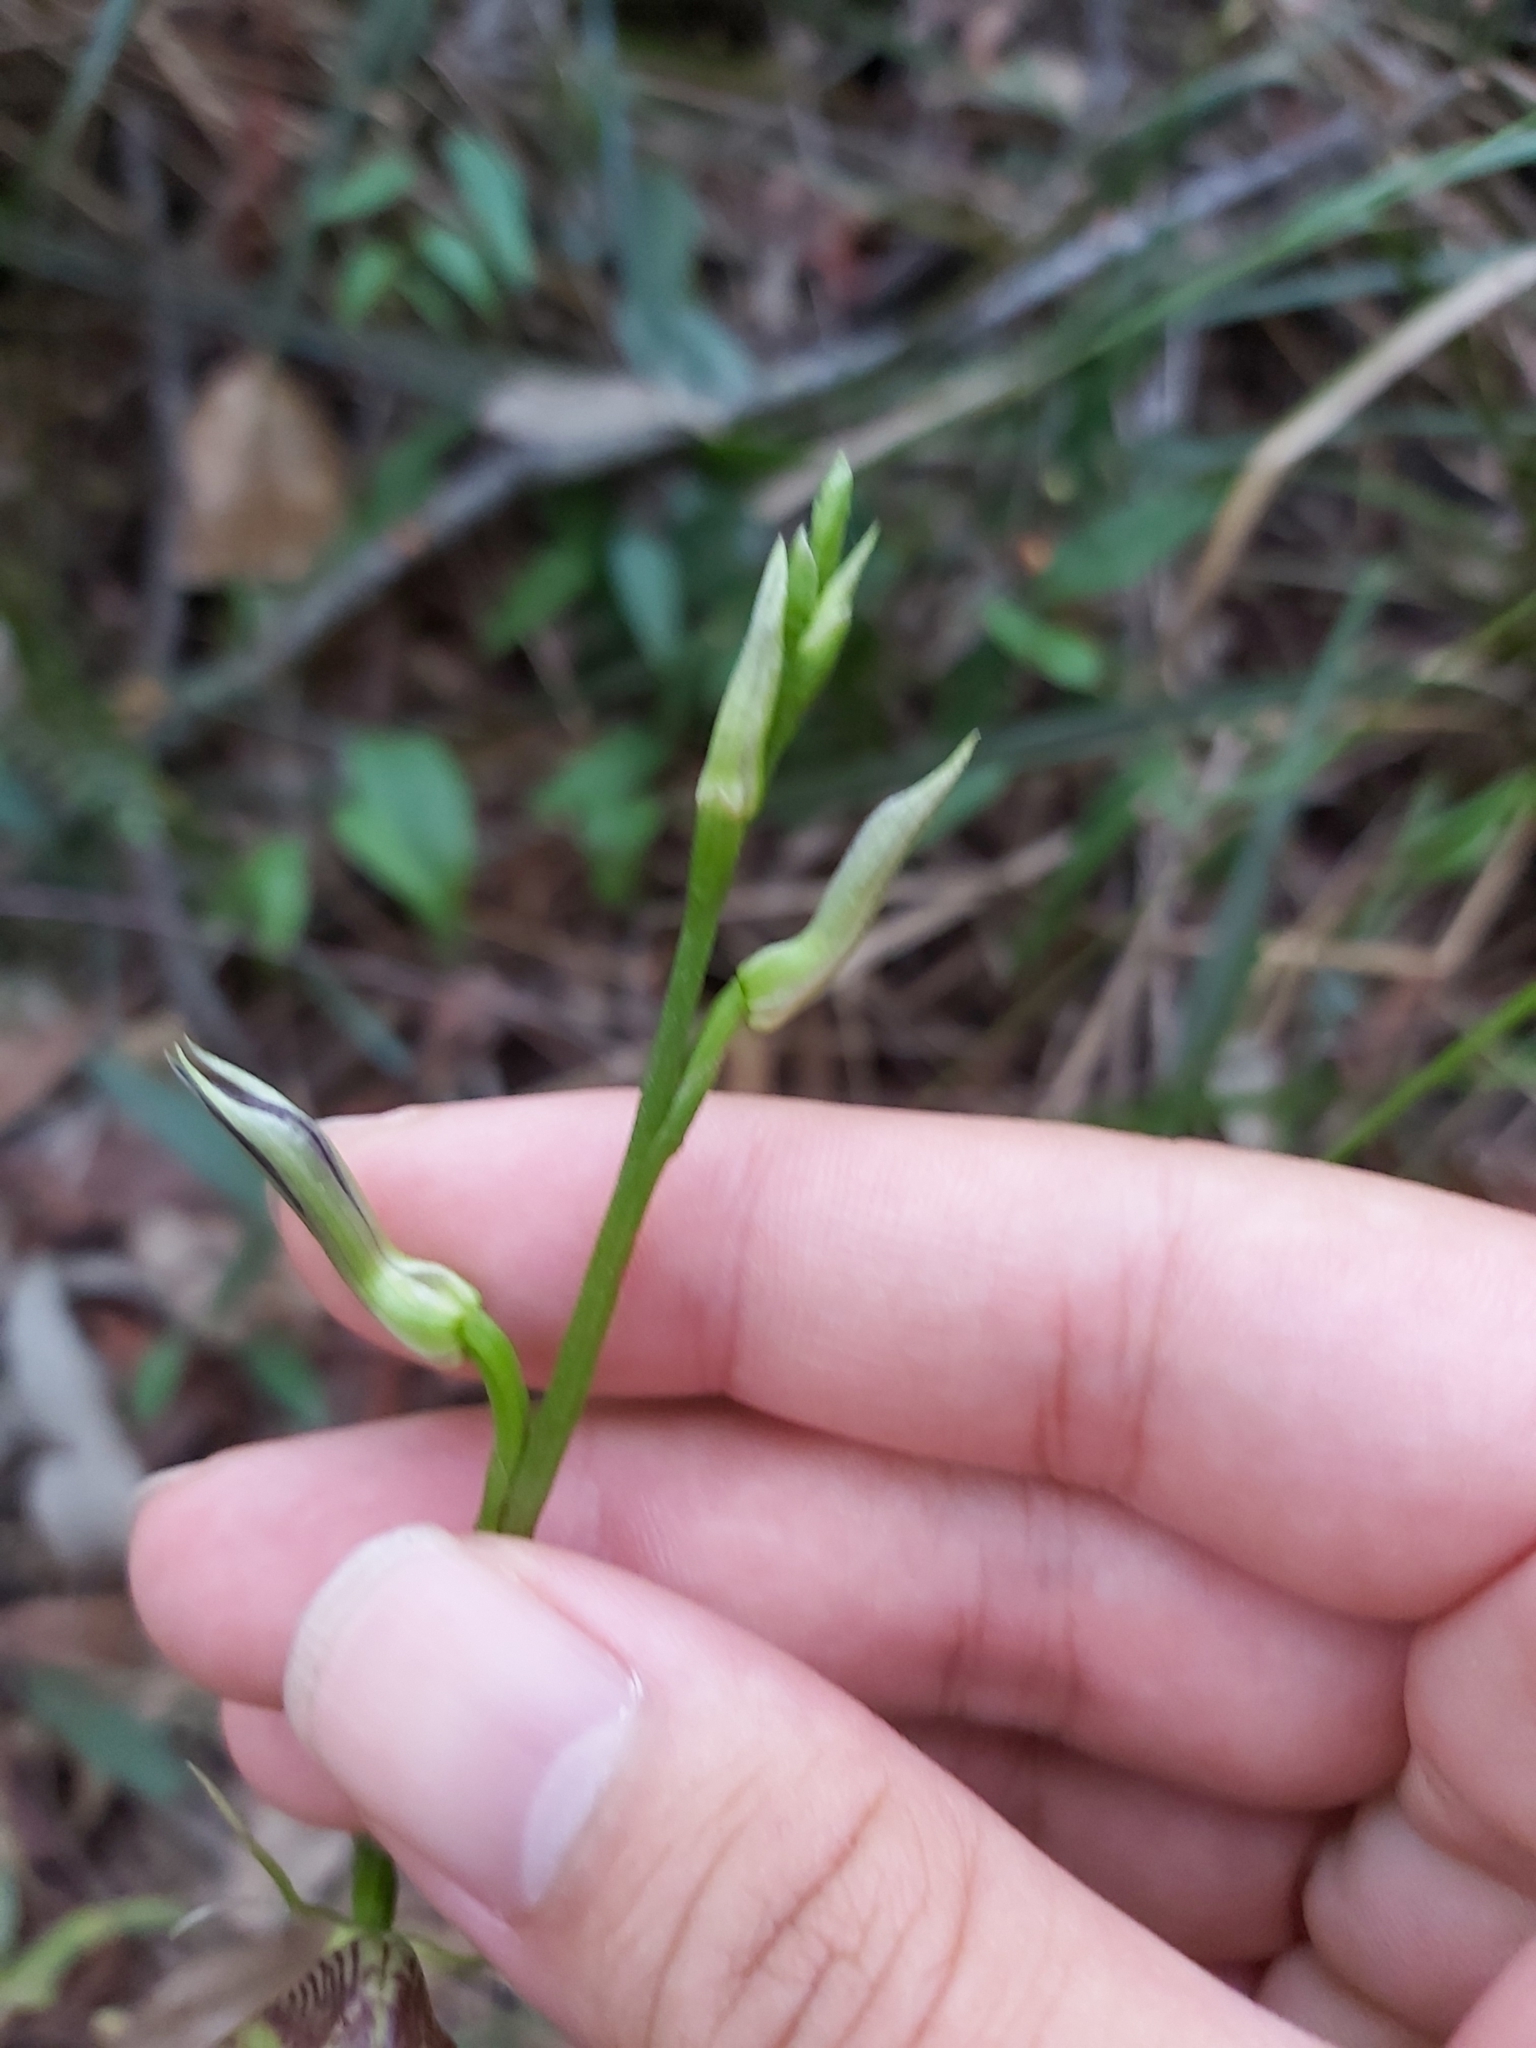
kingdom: Plantae
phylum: Tracheophyta
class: Liliopsida
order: Asparagales
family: Orchidaceae
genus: Cryptostylis
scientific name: Cryptostylis erecta
